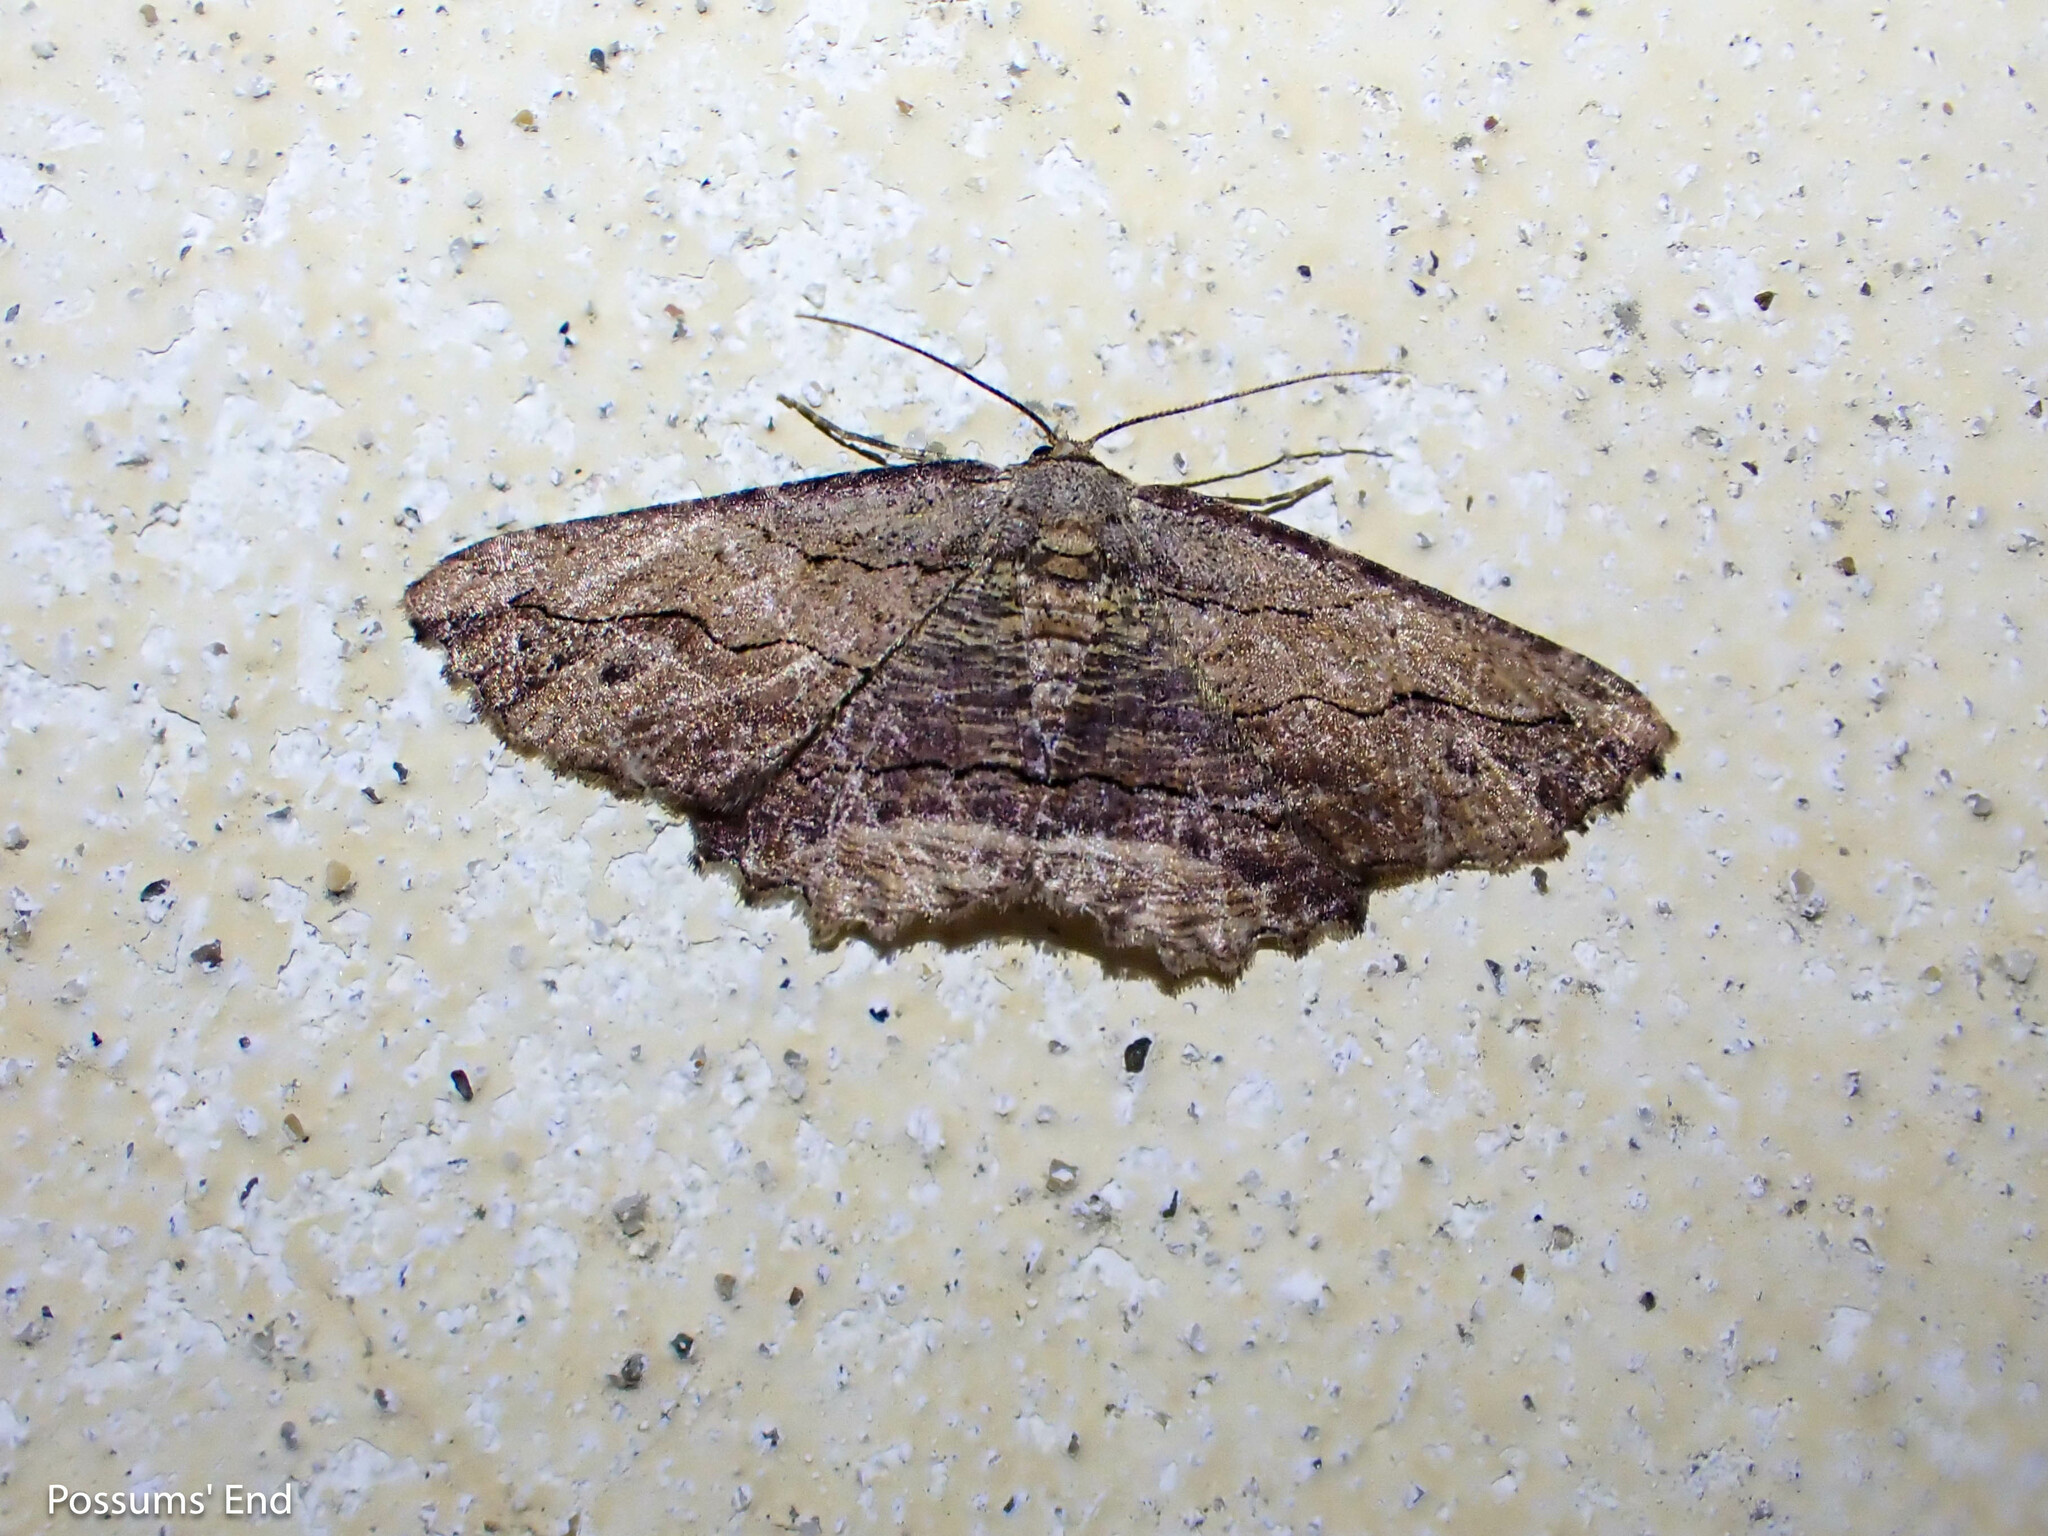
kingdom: Animalia
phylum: Arthropoda
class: Insecta
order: Lepidoptera
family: Geometridae
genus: Menophra
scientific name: Menophra abruptaria
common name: Waved umber
